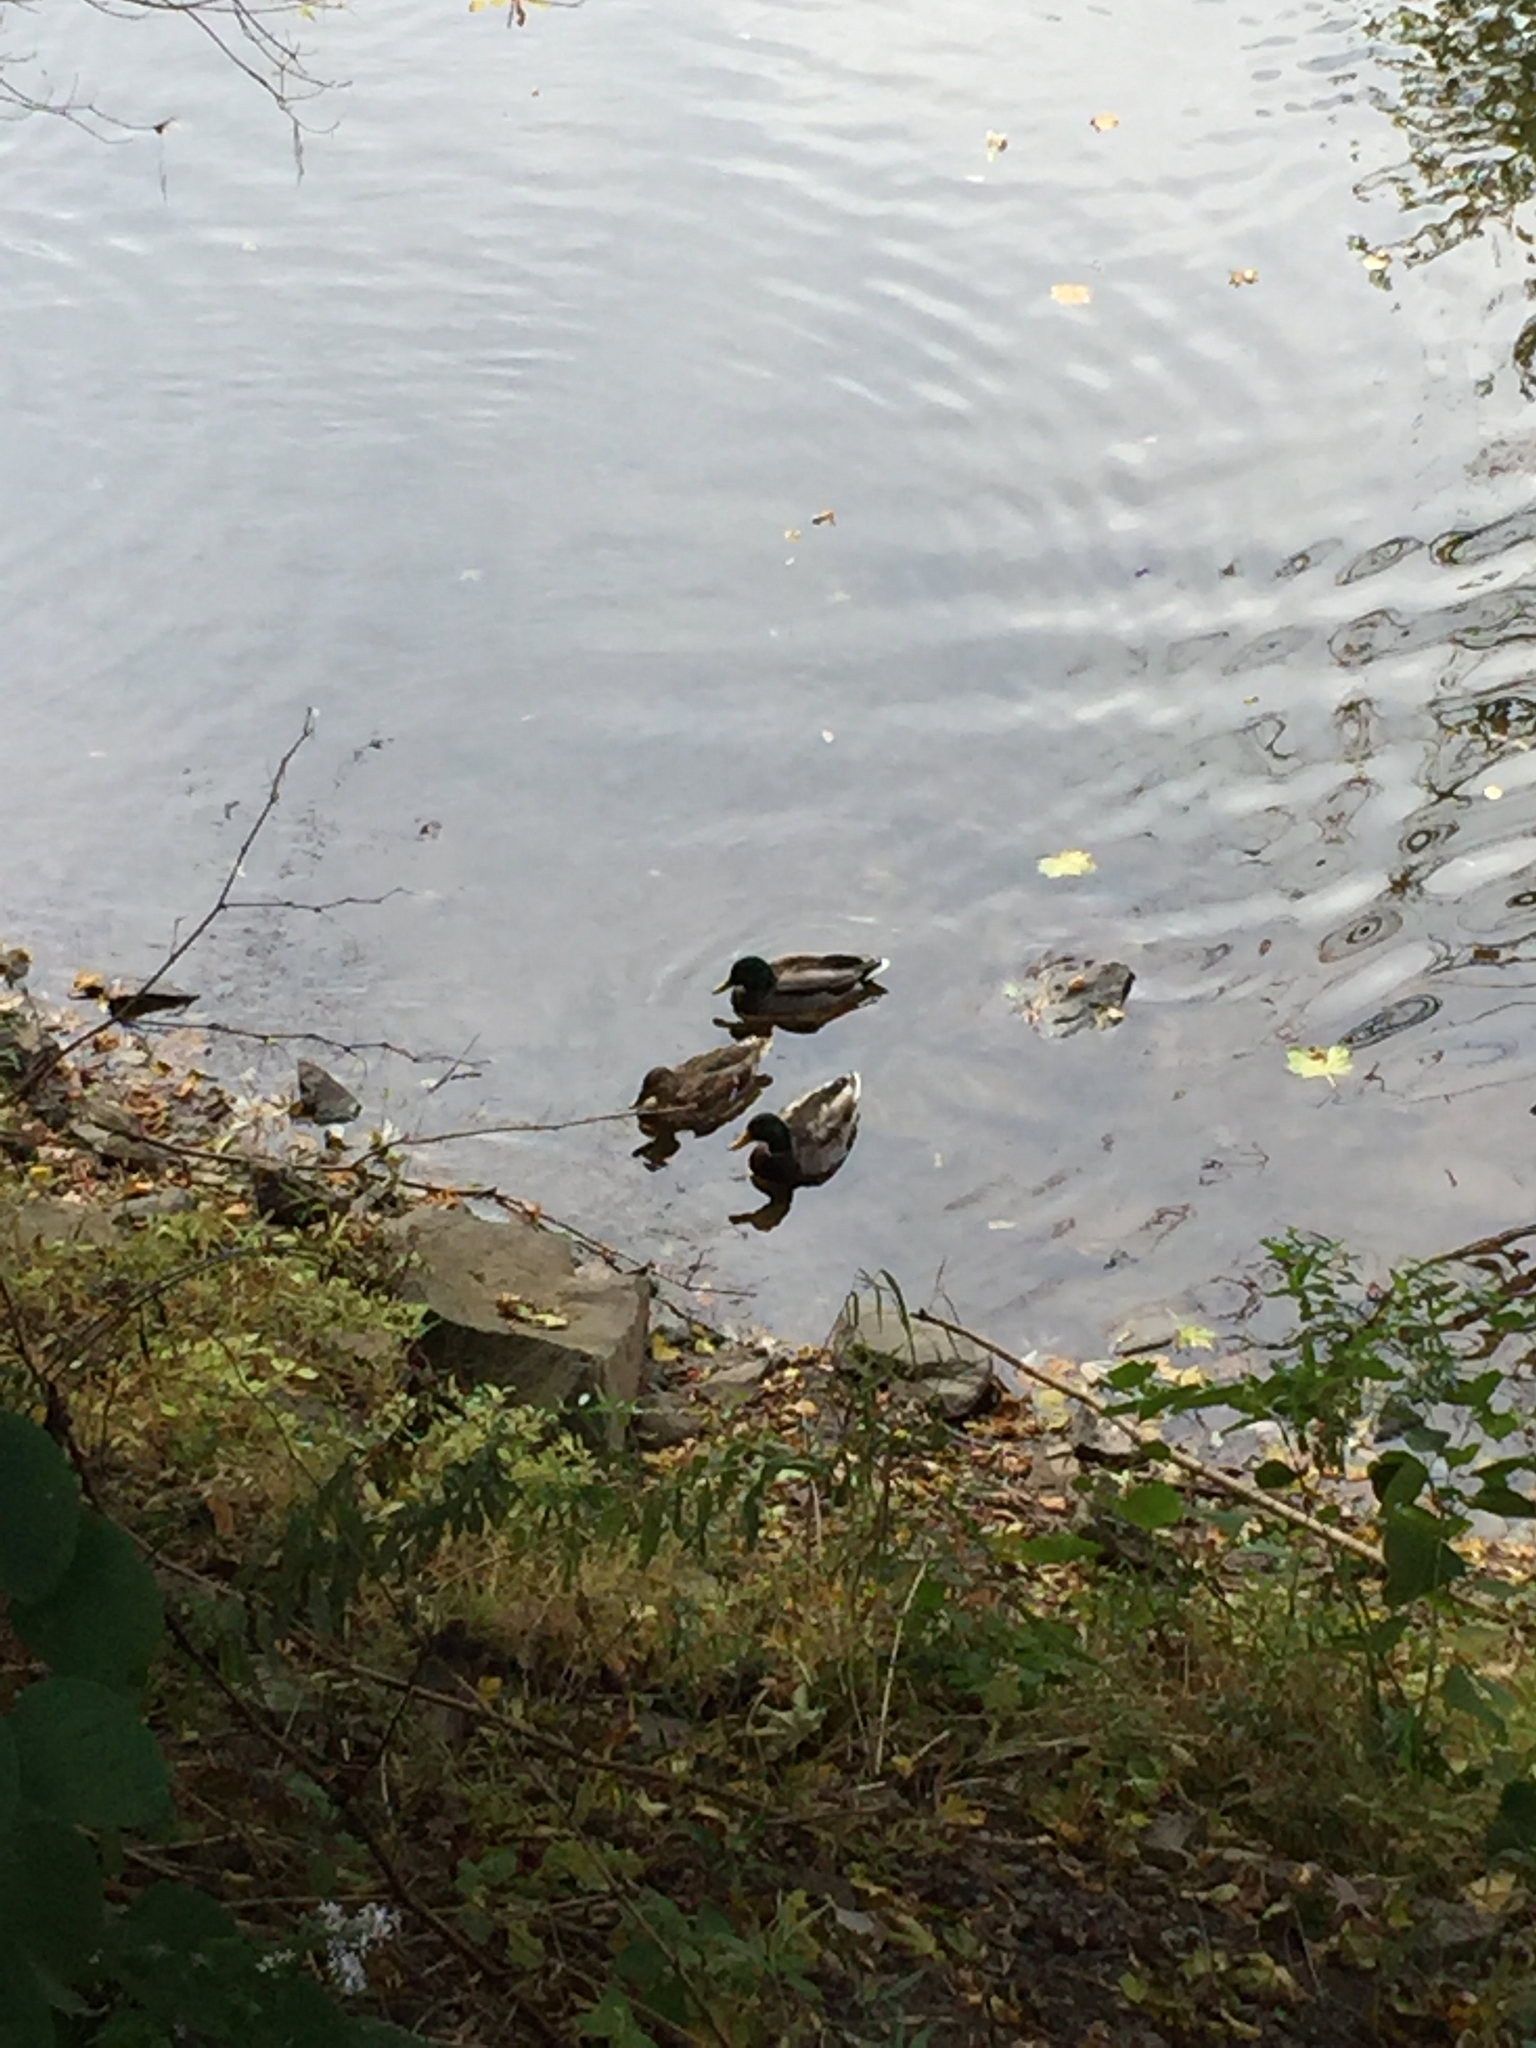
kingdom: Animalia
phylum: Chordata
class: Aves
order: Anseriformes
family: Anatidae
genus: Anas
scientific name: Anas platyrhynchos
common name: Mallard
